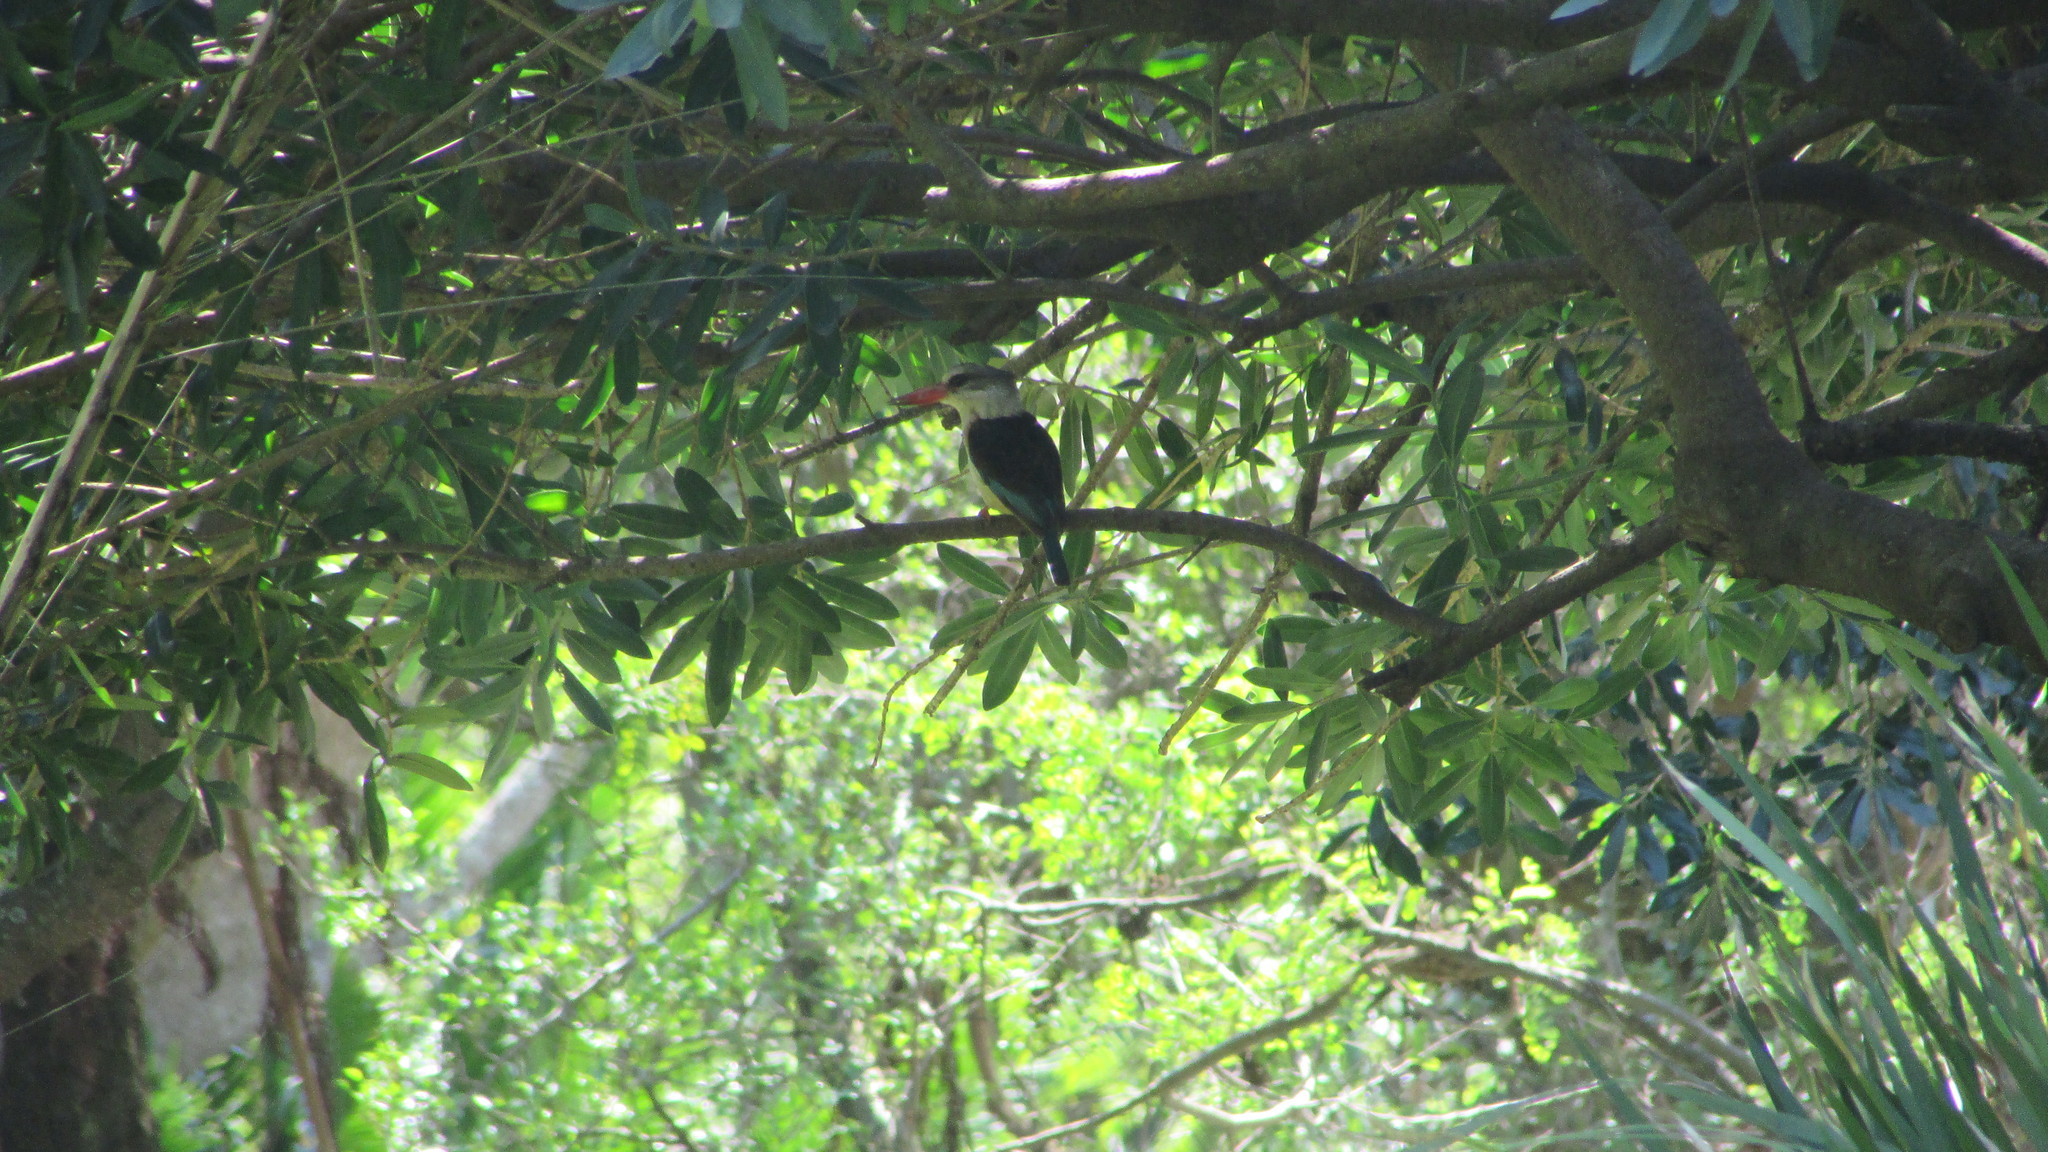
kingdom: Animalia
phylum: Chordata
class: Aves
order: Coraciiformes
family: Alcedinidae
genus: Halcyon
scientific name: Halcyon albiventris
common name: Brown-hooded kingfisher
